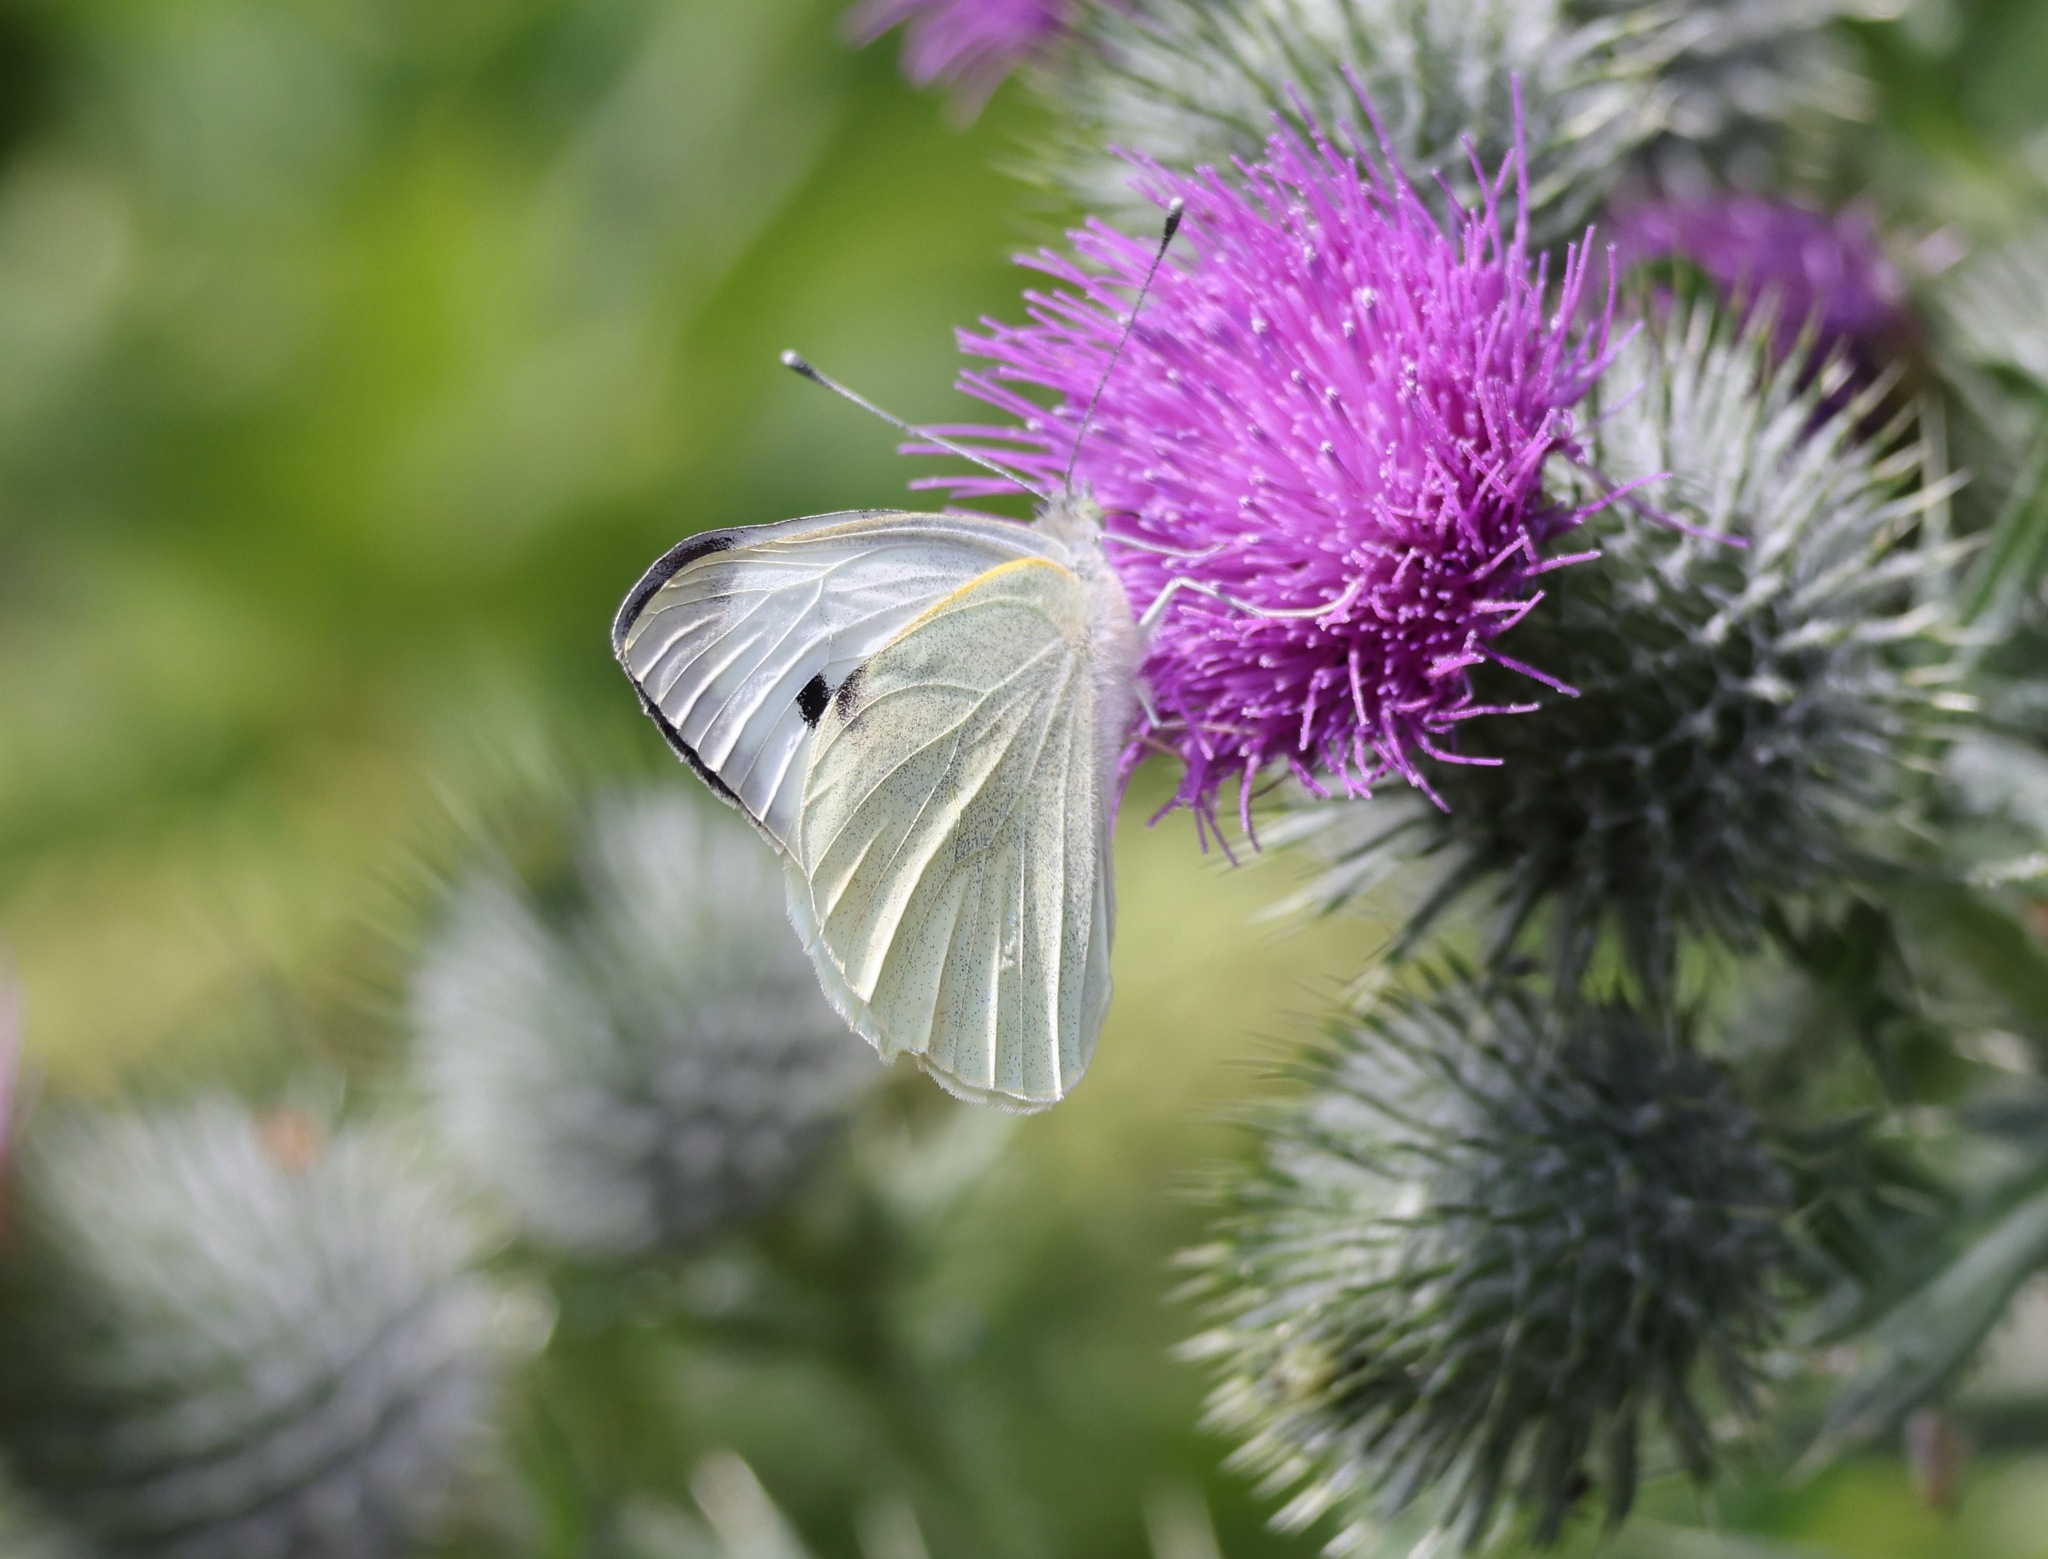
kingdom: Animalia
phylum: Arthropoda
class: Insecta
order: Lepidoptera
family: Pieridae
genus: Pieris
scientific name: Pieris brassicae
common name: Large white
